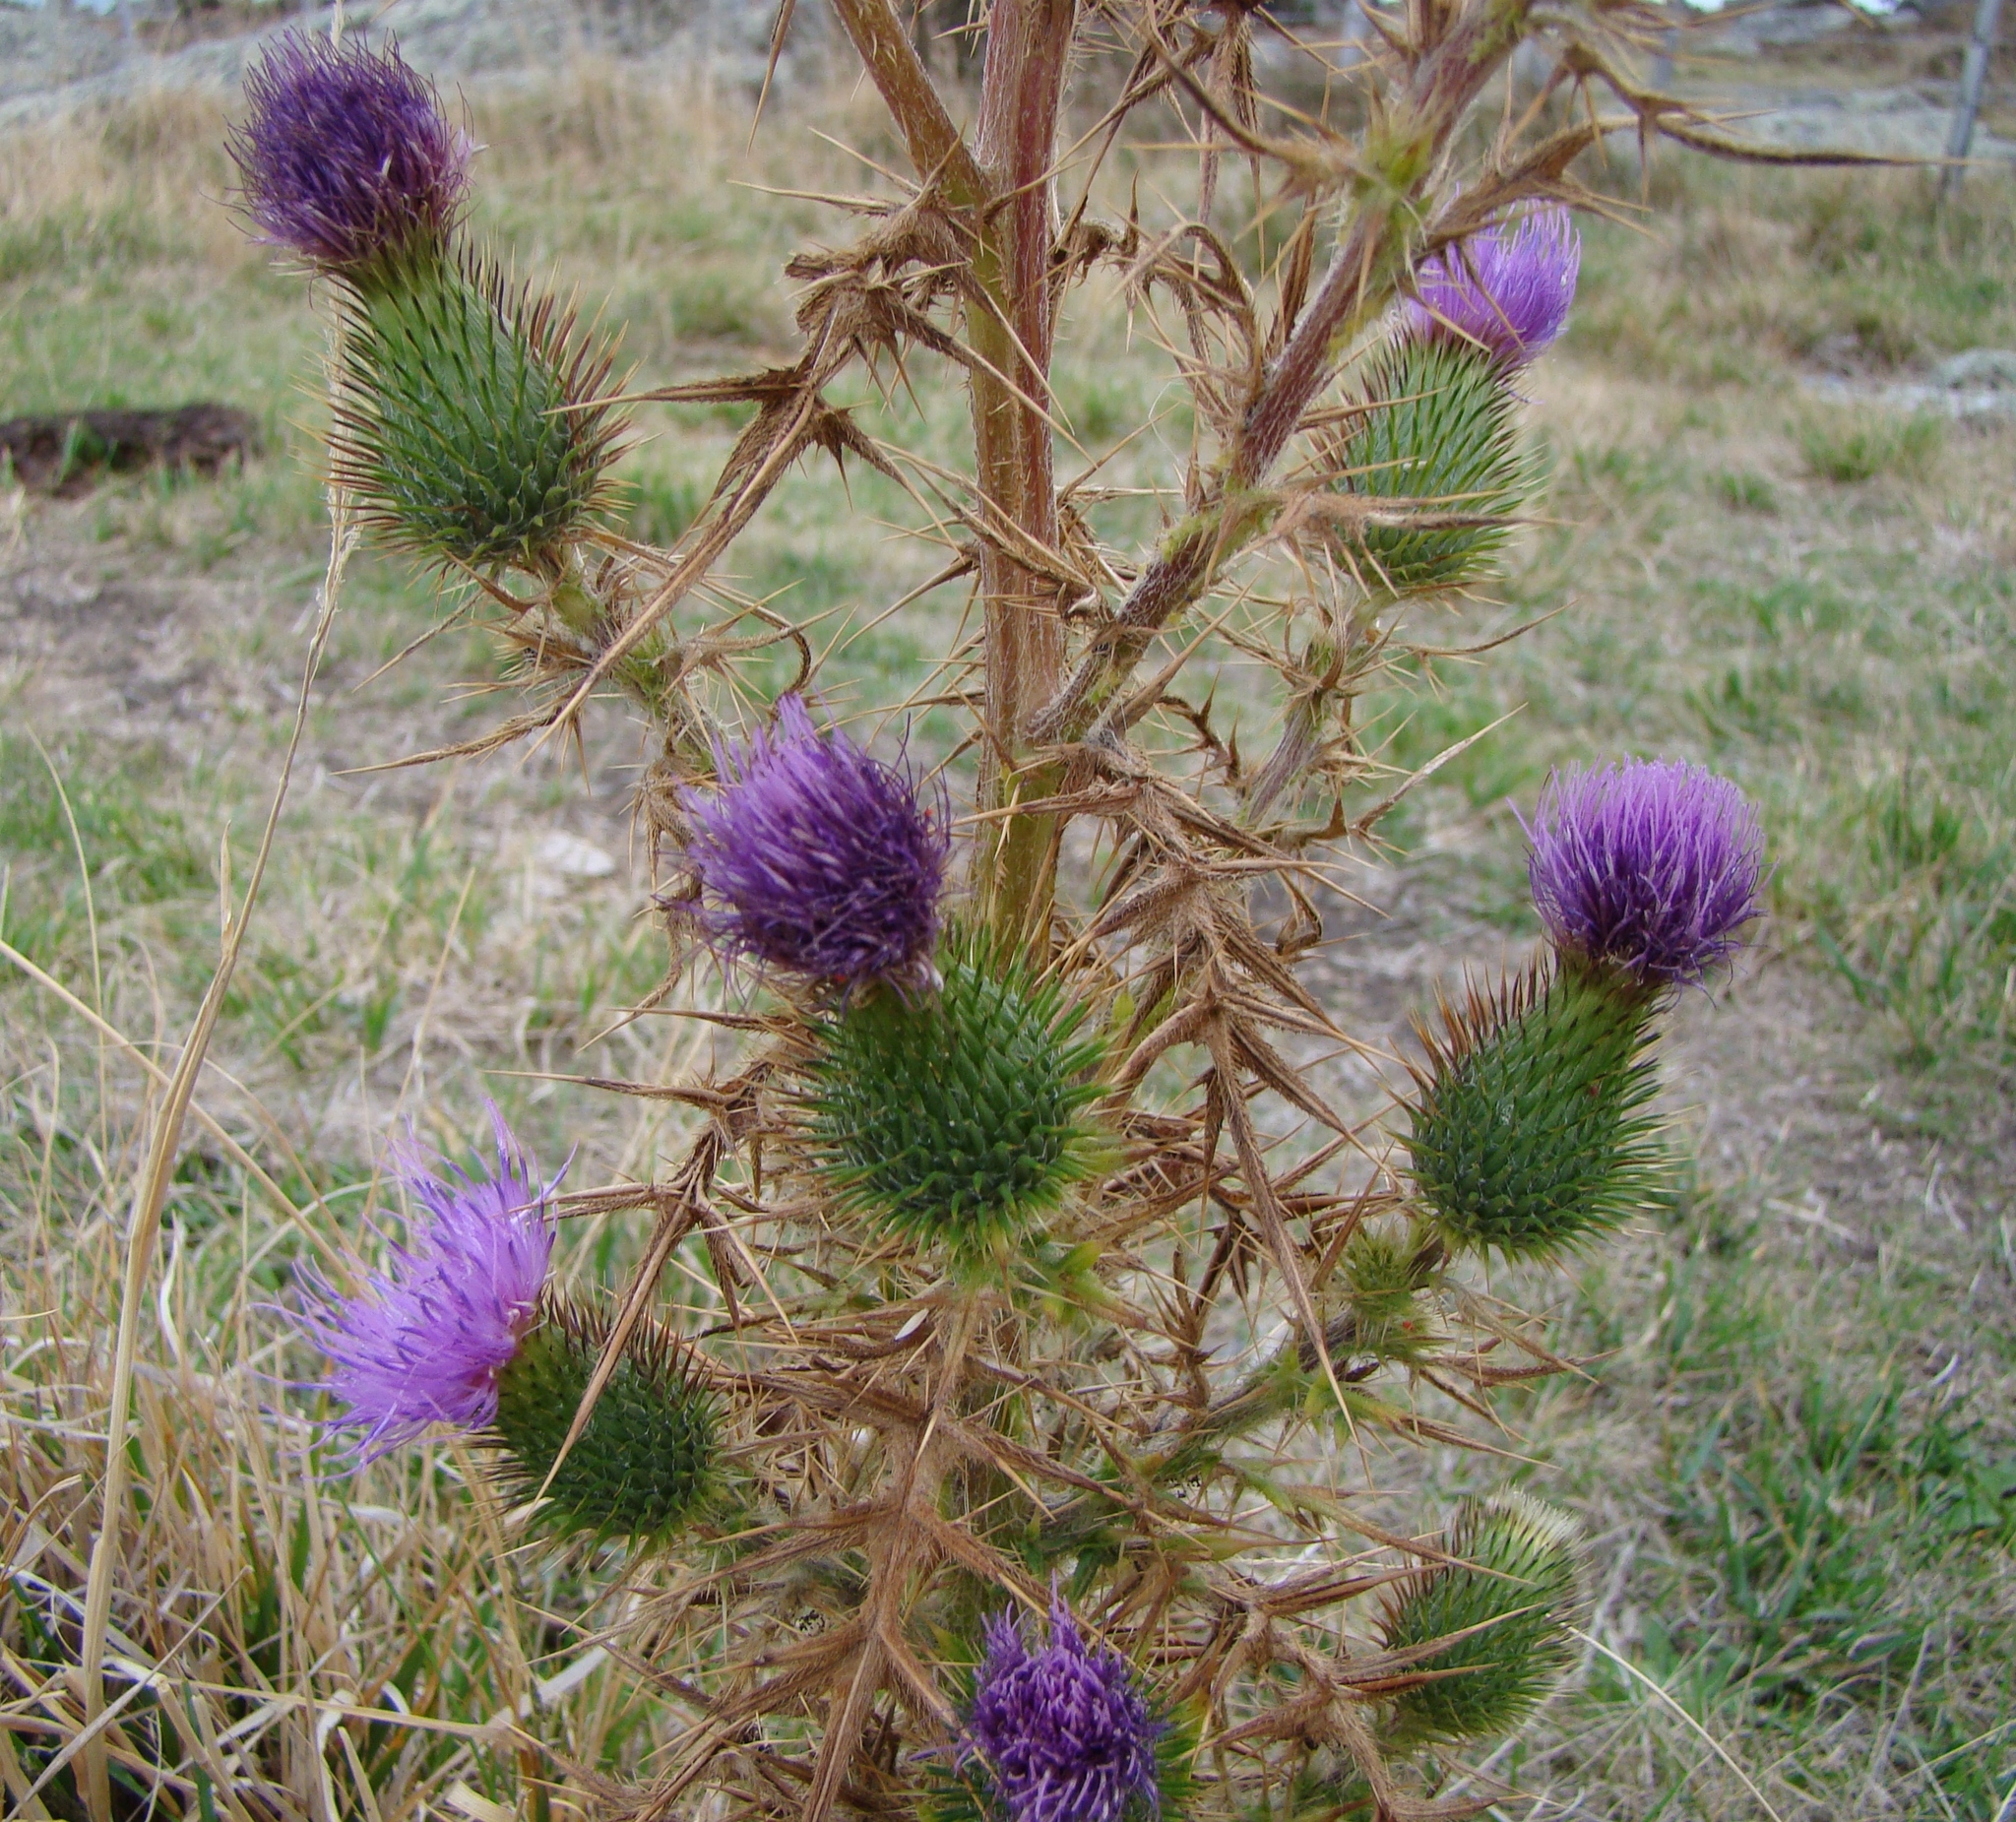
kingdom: Plantae
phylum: Tracheophyta
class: Magnoliopsida
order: Asterales
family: Asteraceae
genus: Cirsium
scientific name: Cirsium vulgare
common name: Bull thistle
